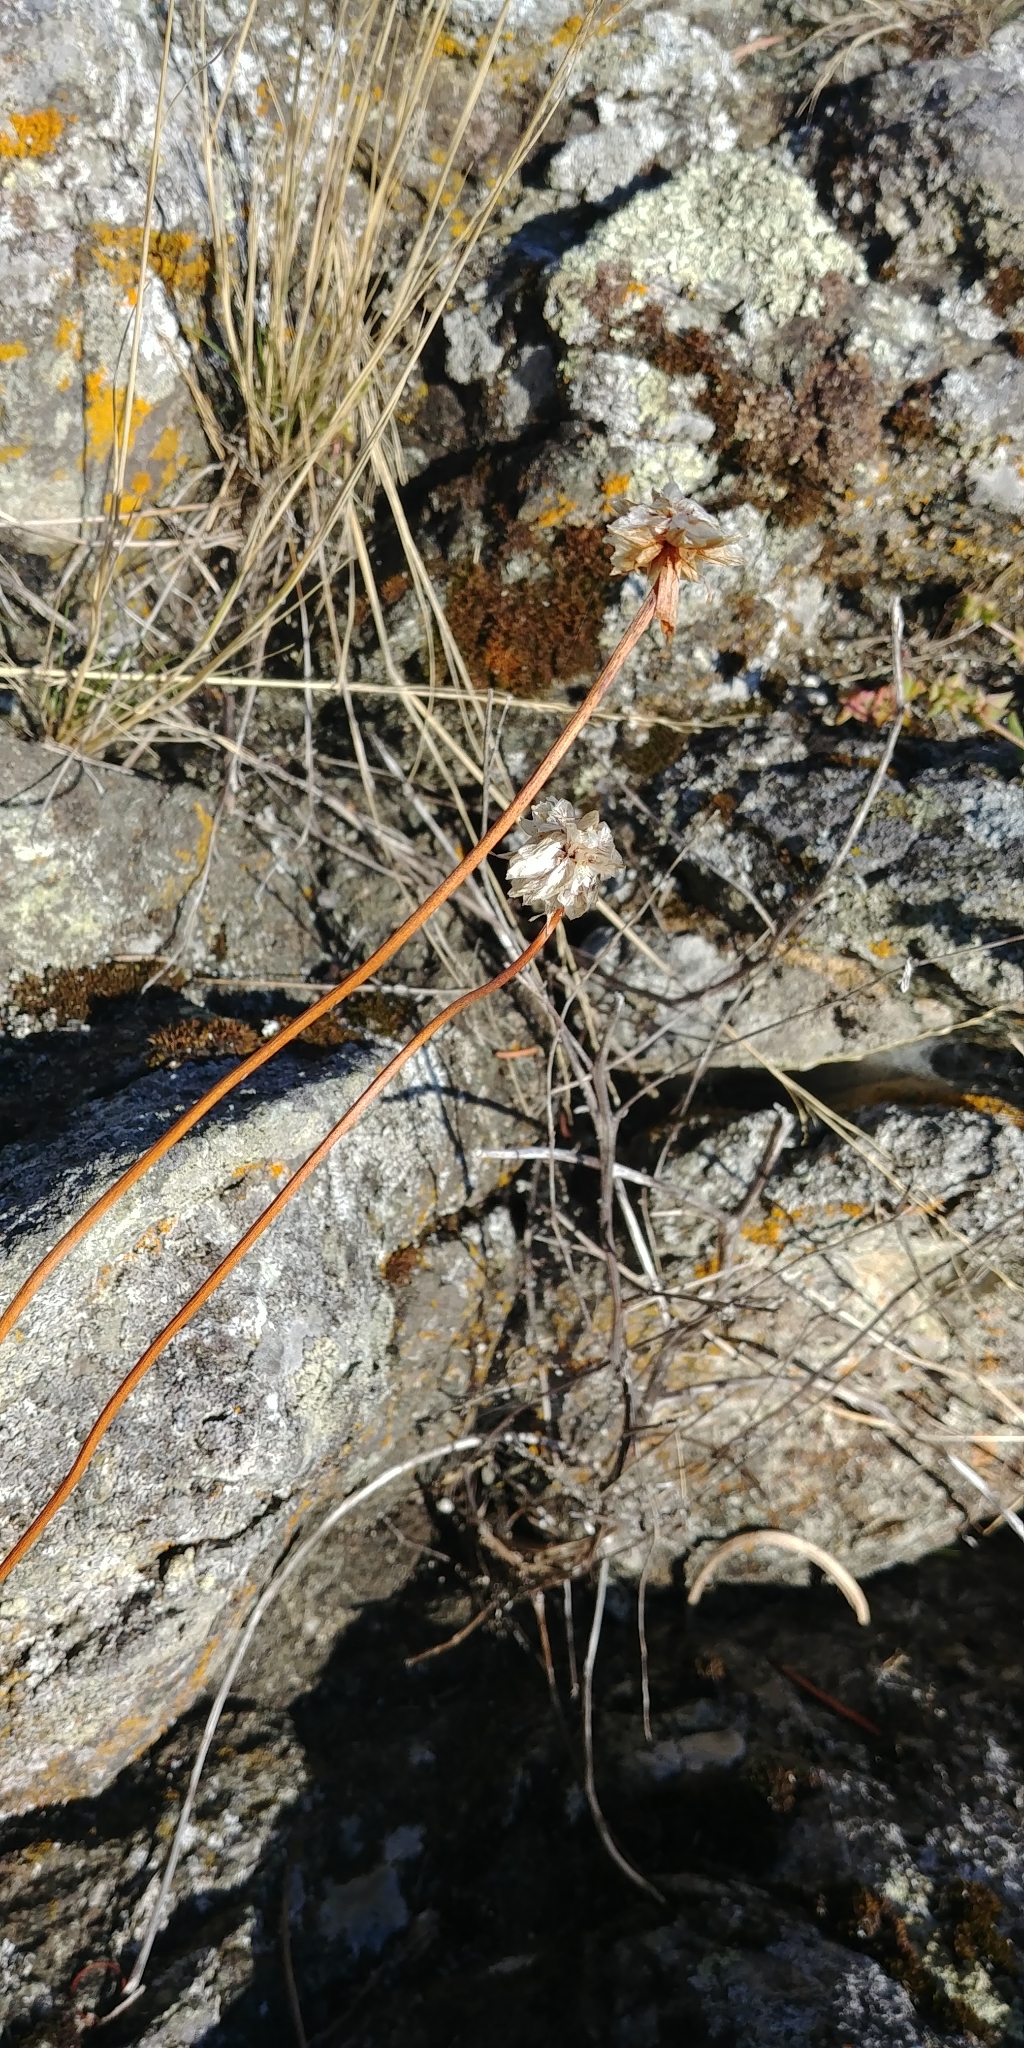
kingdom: Plantae
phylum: Tracheophyta
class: Magnoliopsida
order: Caryophyllales
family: Plumbaginaceae
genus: Armeria
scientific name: Armeria maritima
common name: Thrift
